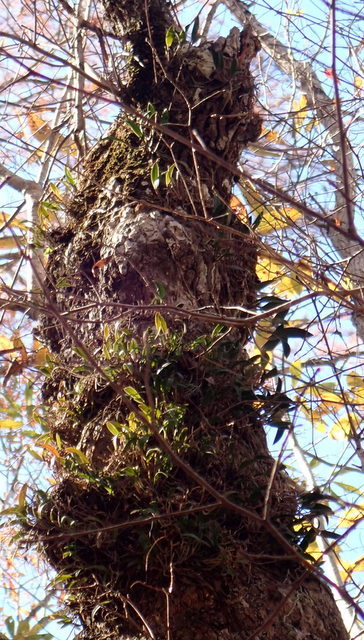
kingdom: Plantae
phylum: Tracheophyta
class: Liliopsida
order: Asparagales
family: Orchidaceae
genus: Epidendrum
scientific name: Epidendrum conopseum
